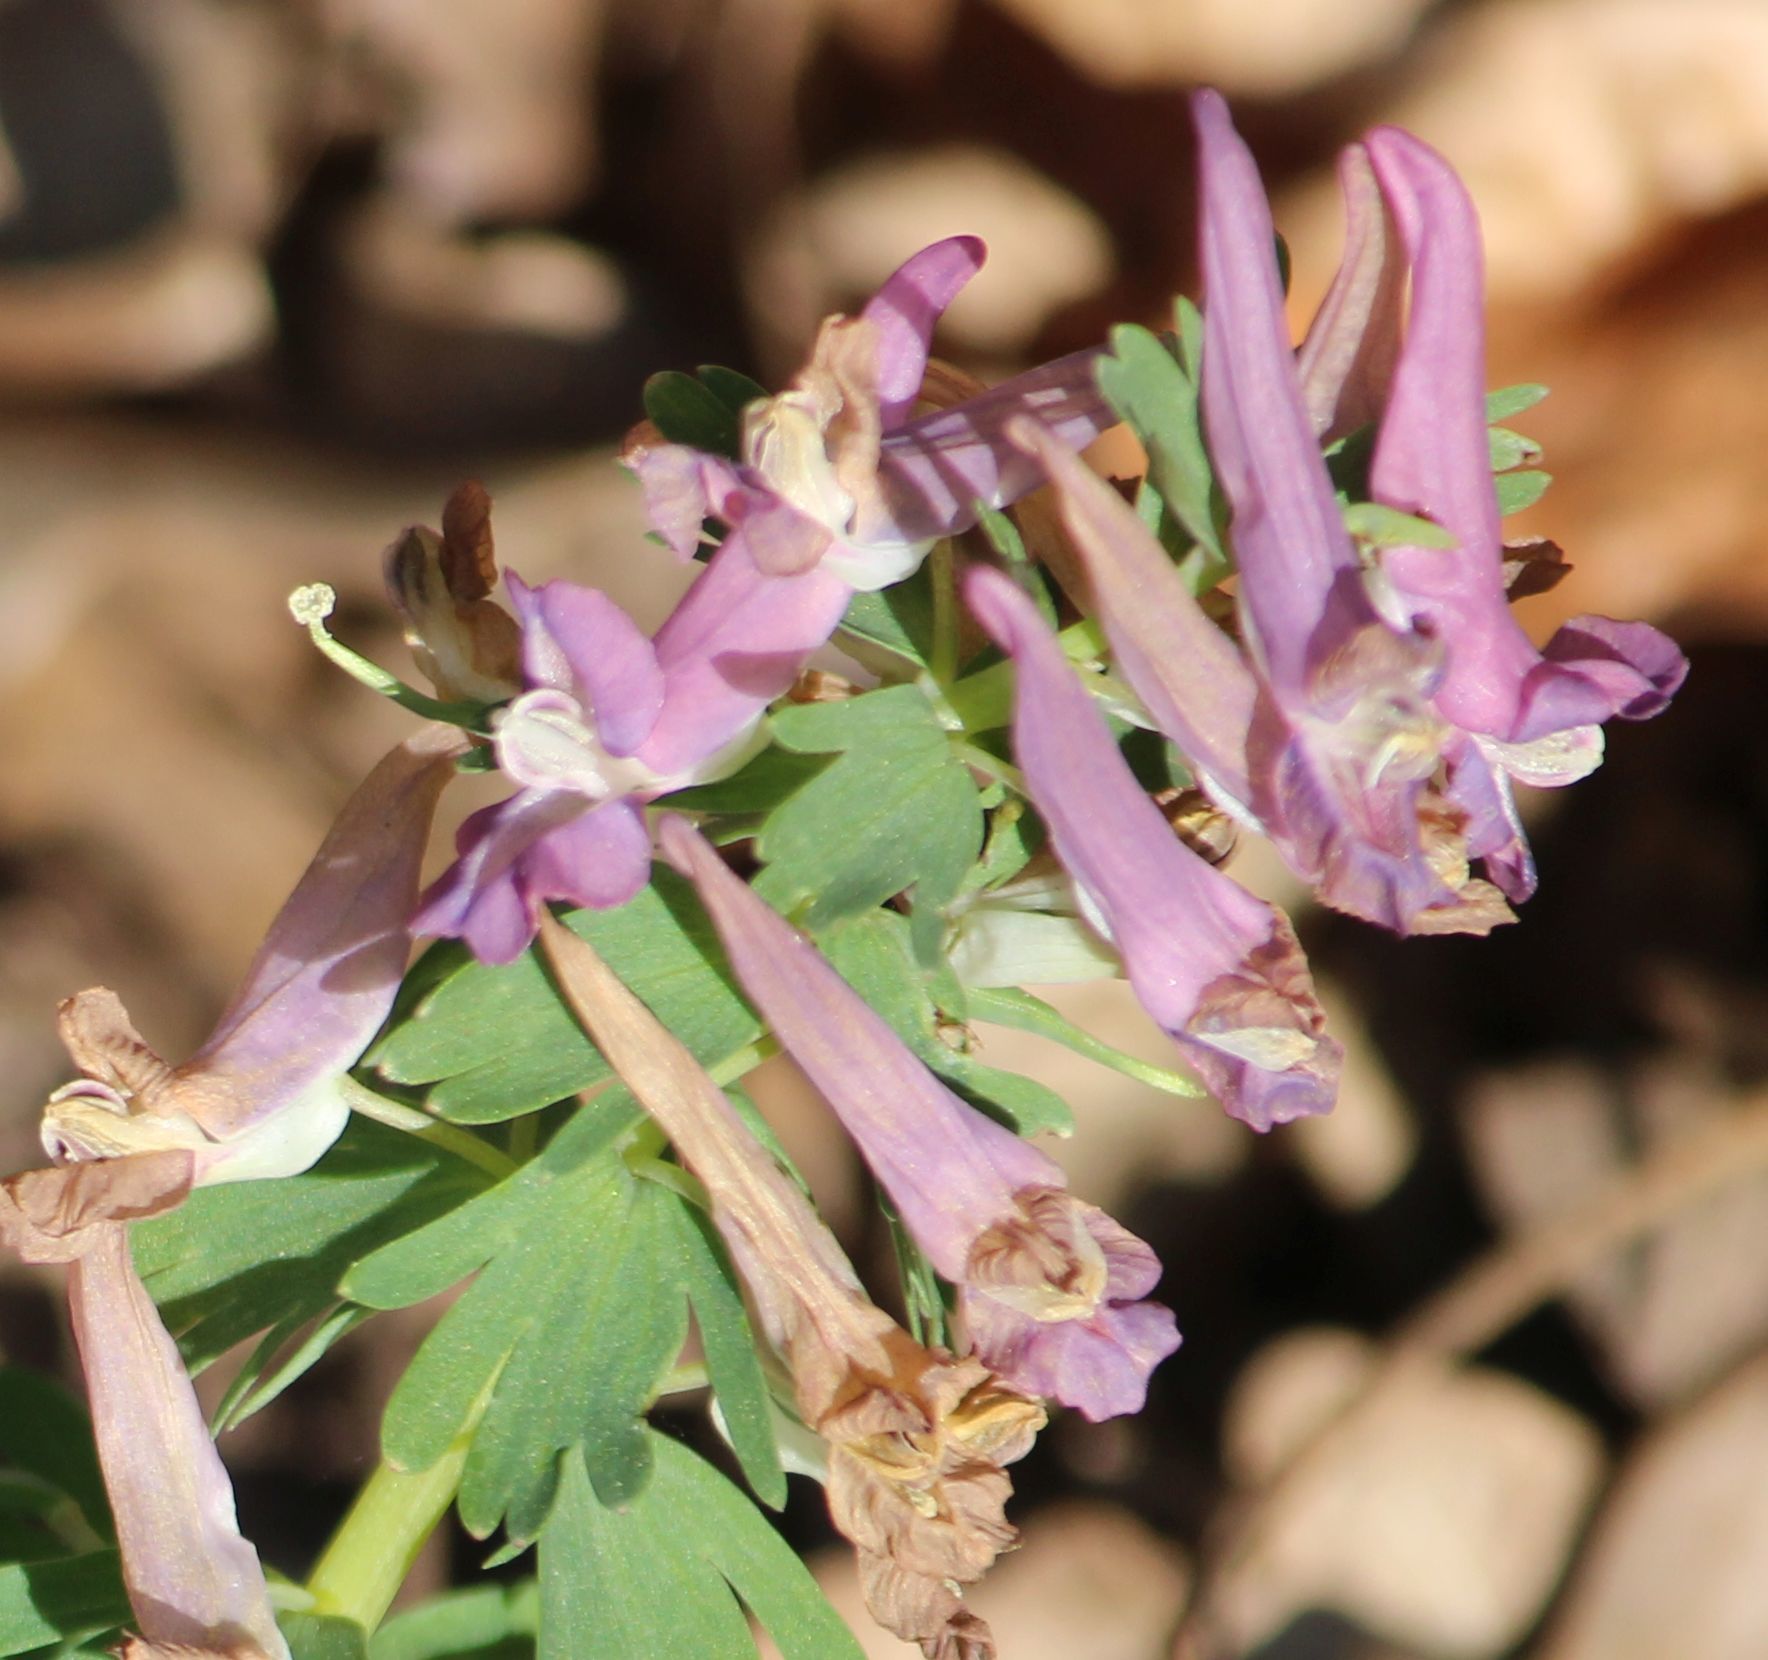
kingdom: Plantae
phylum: Tracheophyta
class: Magnoliopsida
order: Ranunculales
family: Papaveraceae
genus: Corydalis
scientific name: Corydalis solida
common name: Bird-in-a-bush
